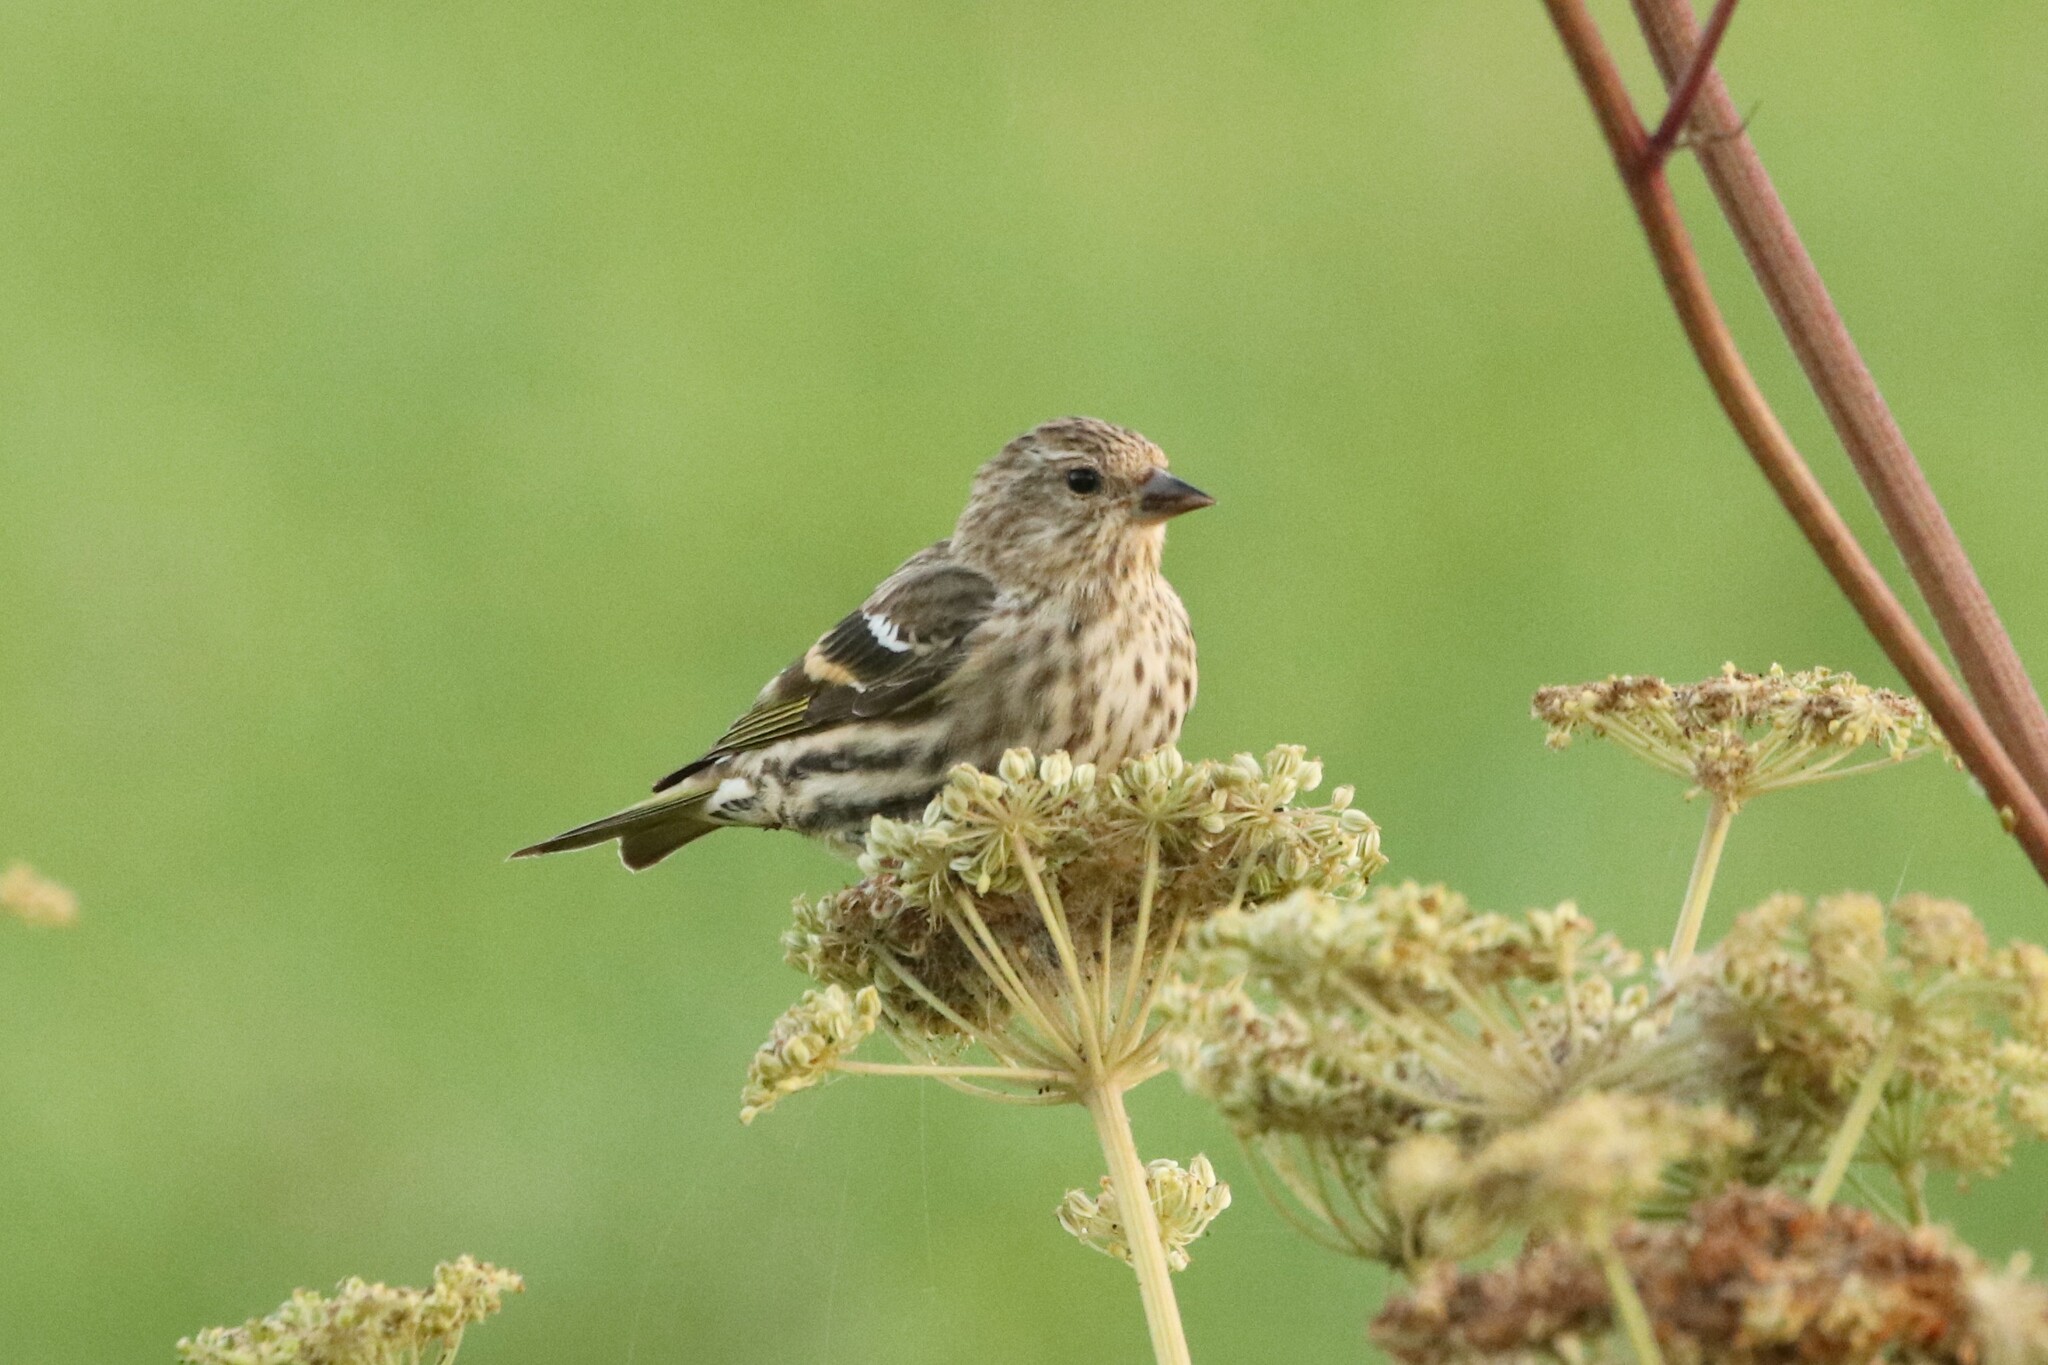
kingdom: Animalia
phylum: Chordata
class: Aves
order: Passeriformes
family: Fringillidae
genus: Spinus
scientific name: Spinus pinus
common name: Pine siskin
